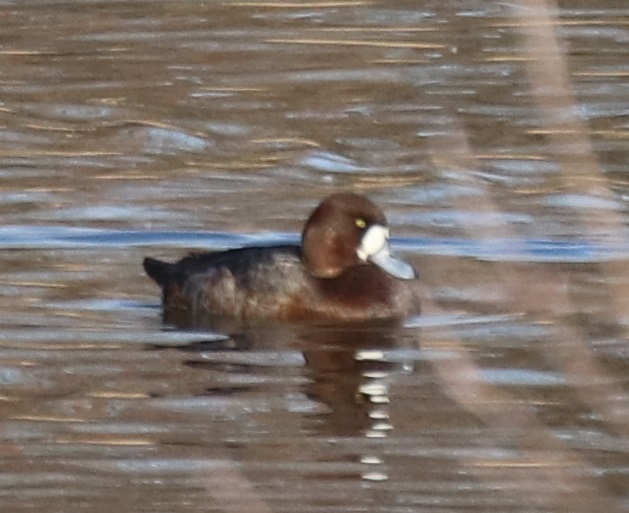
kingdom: Animalia
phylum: Chordata
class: Aves
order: Anseriformes
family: Anatidae
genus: Aythya
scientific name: Aythya marila
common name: Greater scaup
